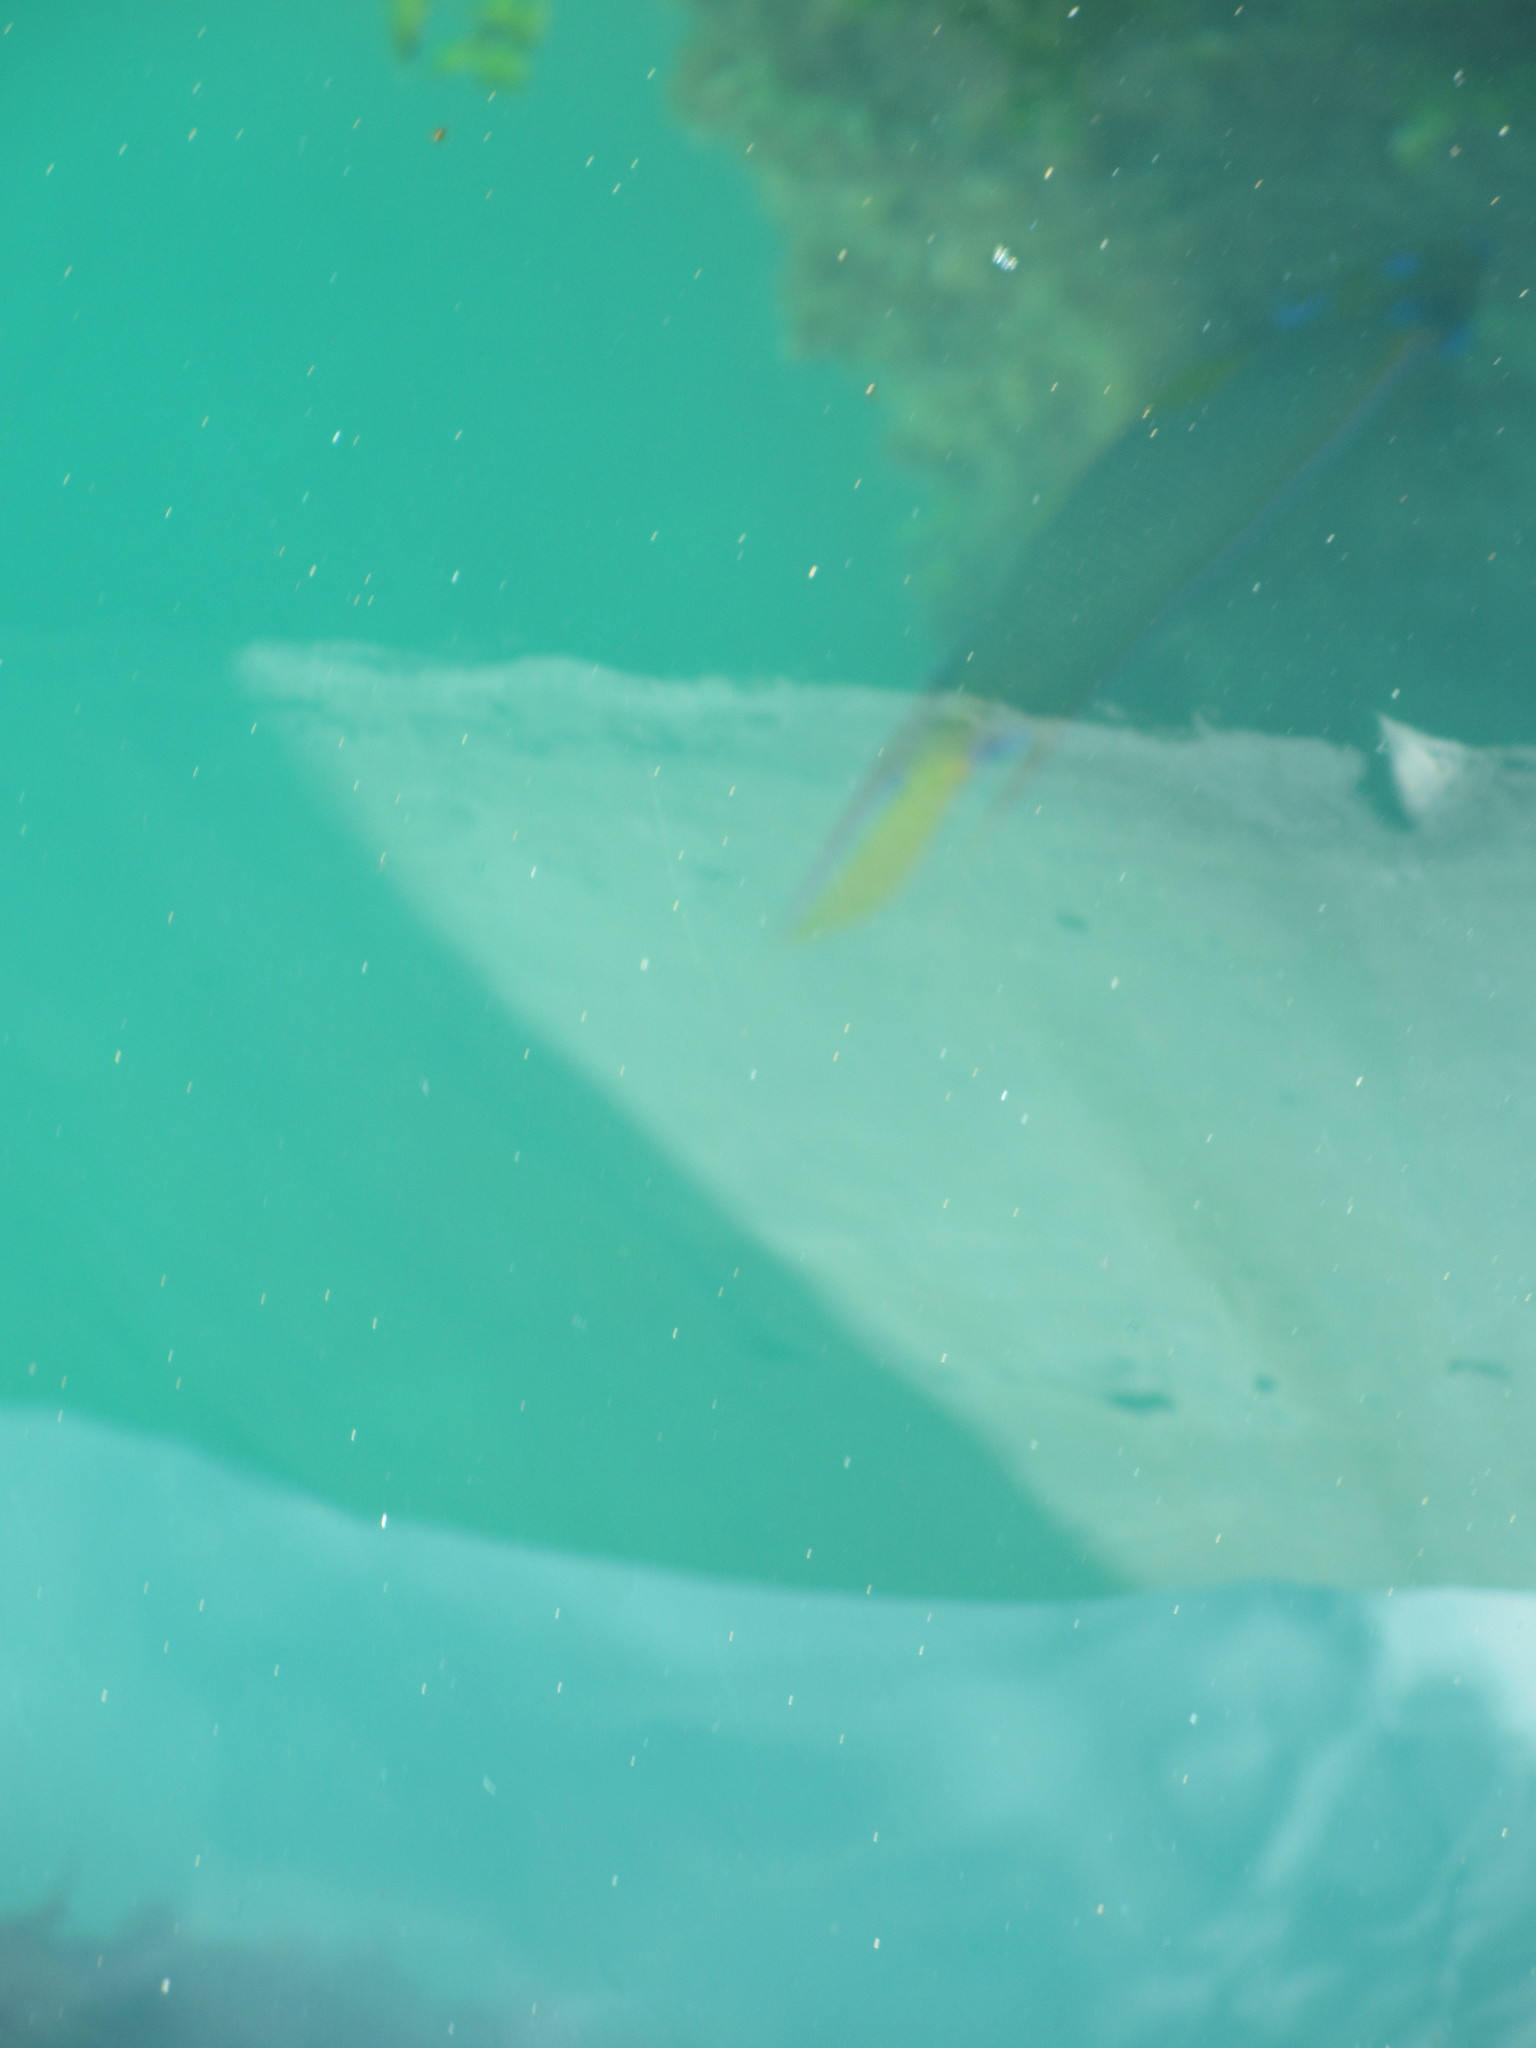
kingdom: Animalia
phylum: Chordata
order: Perciformes
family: Pomacanthidae
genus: Holacanthus
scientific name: Holacanthus ciliaris
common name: Queen angelfish
